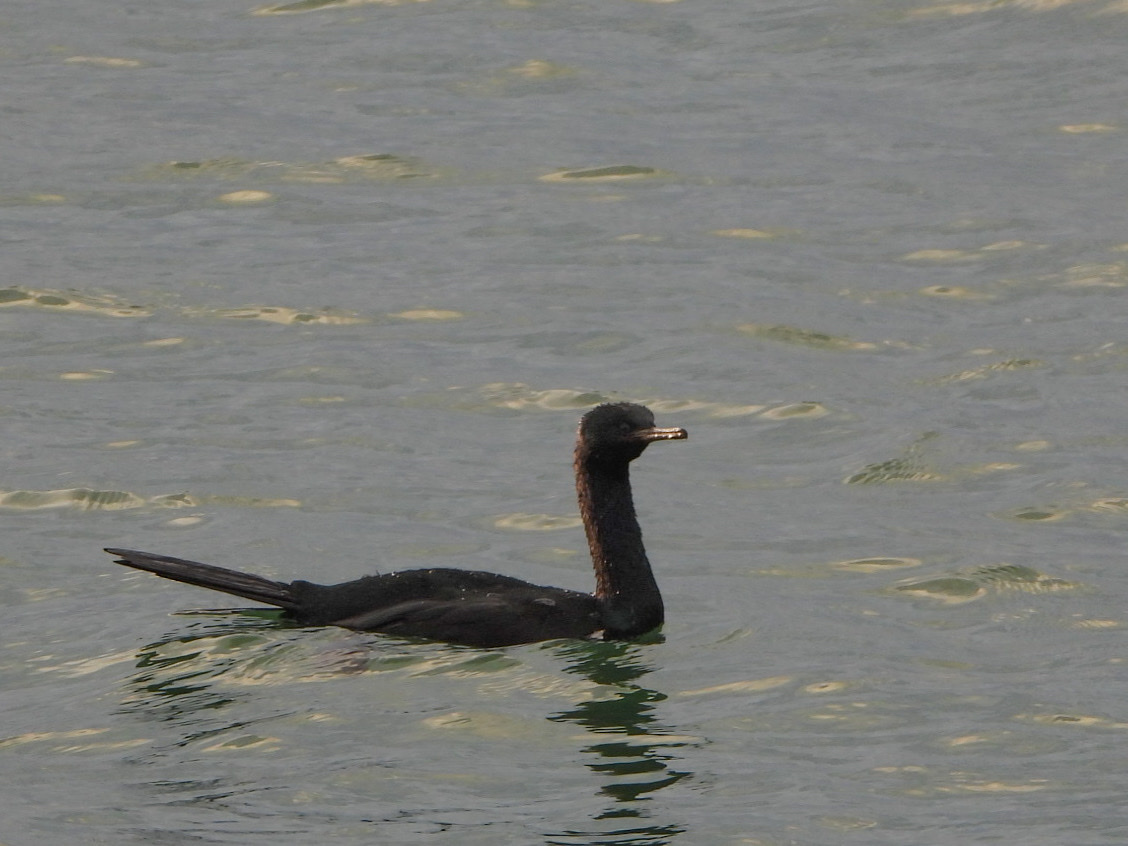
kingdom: Animalia
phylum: Chordata
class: Aves
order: Suliformes
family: Phalacrocoracidae
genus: Phalacrocorax
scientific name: Phalacrocorax pelagicus
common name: Pelagic cormorant
